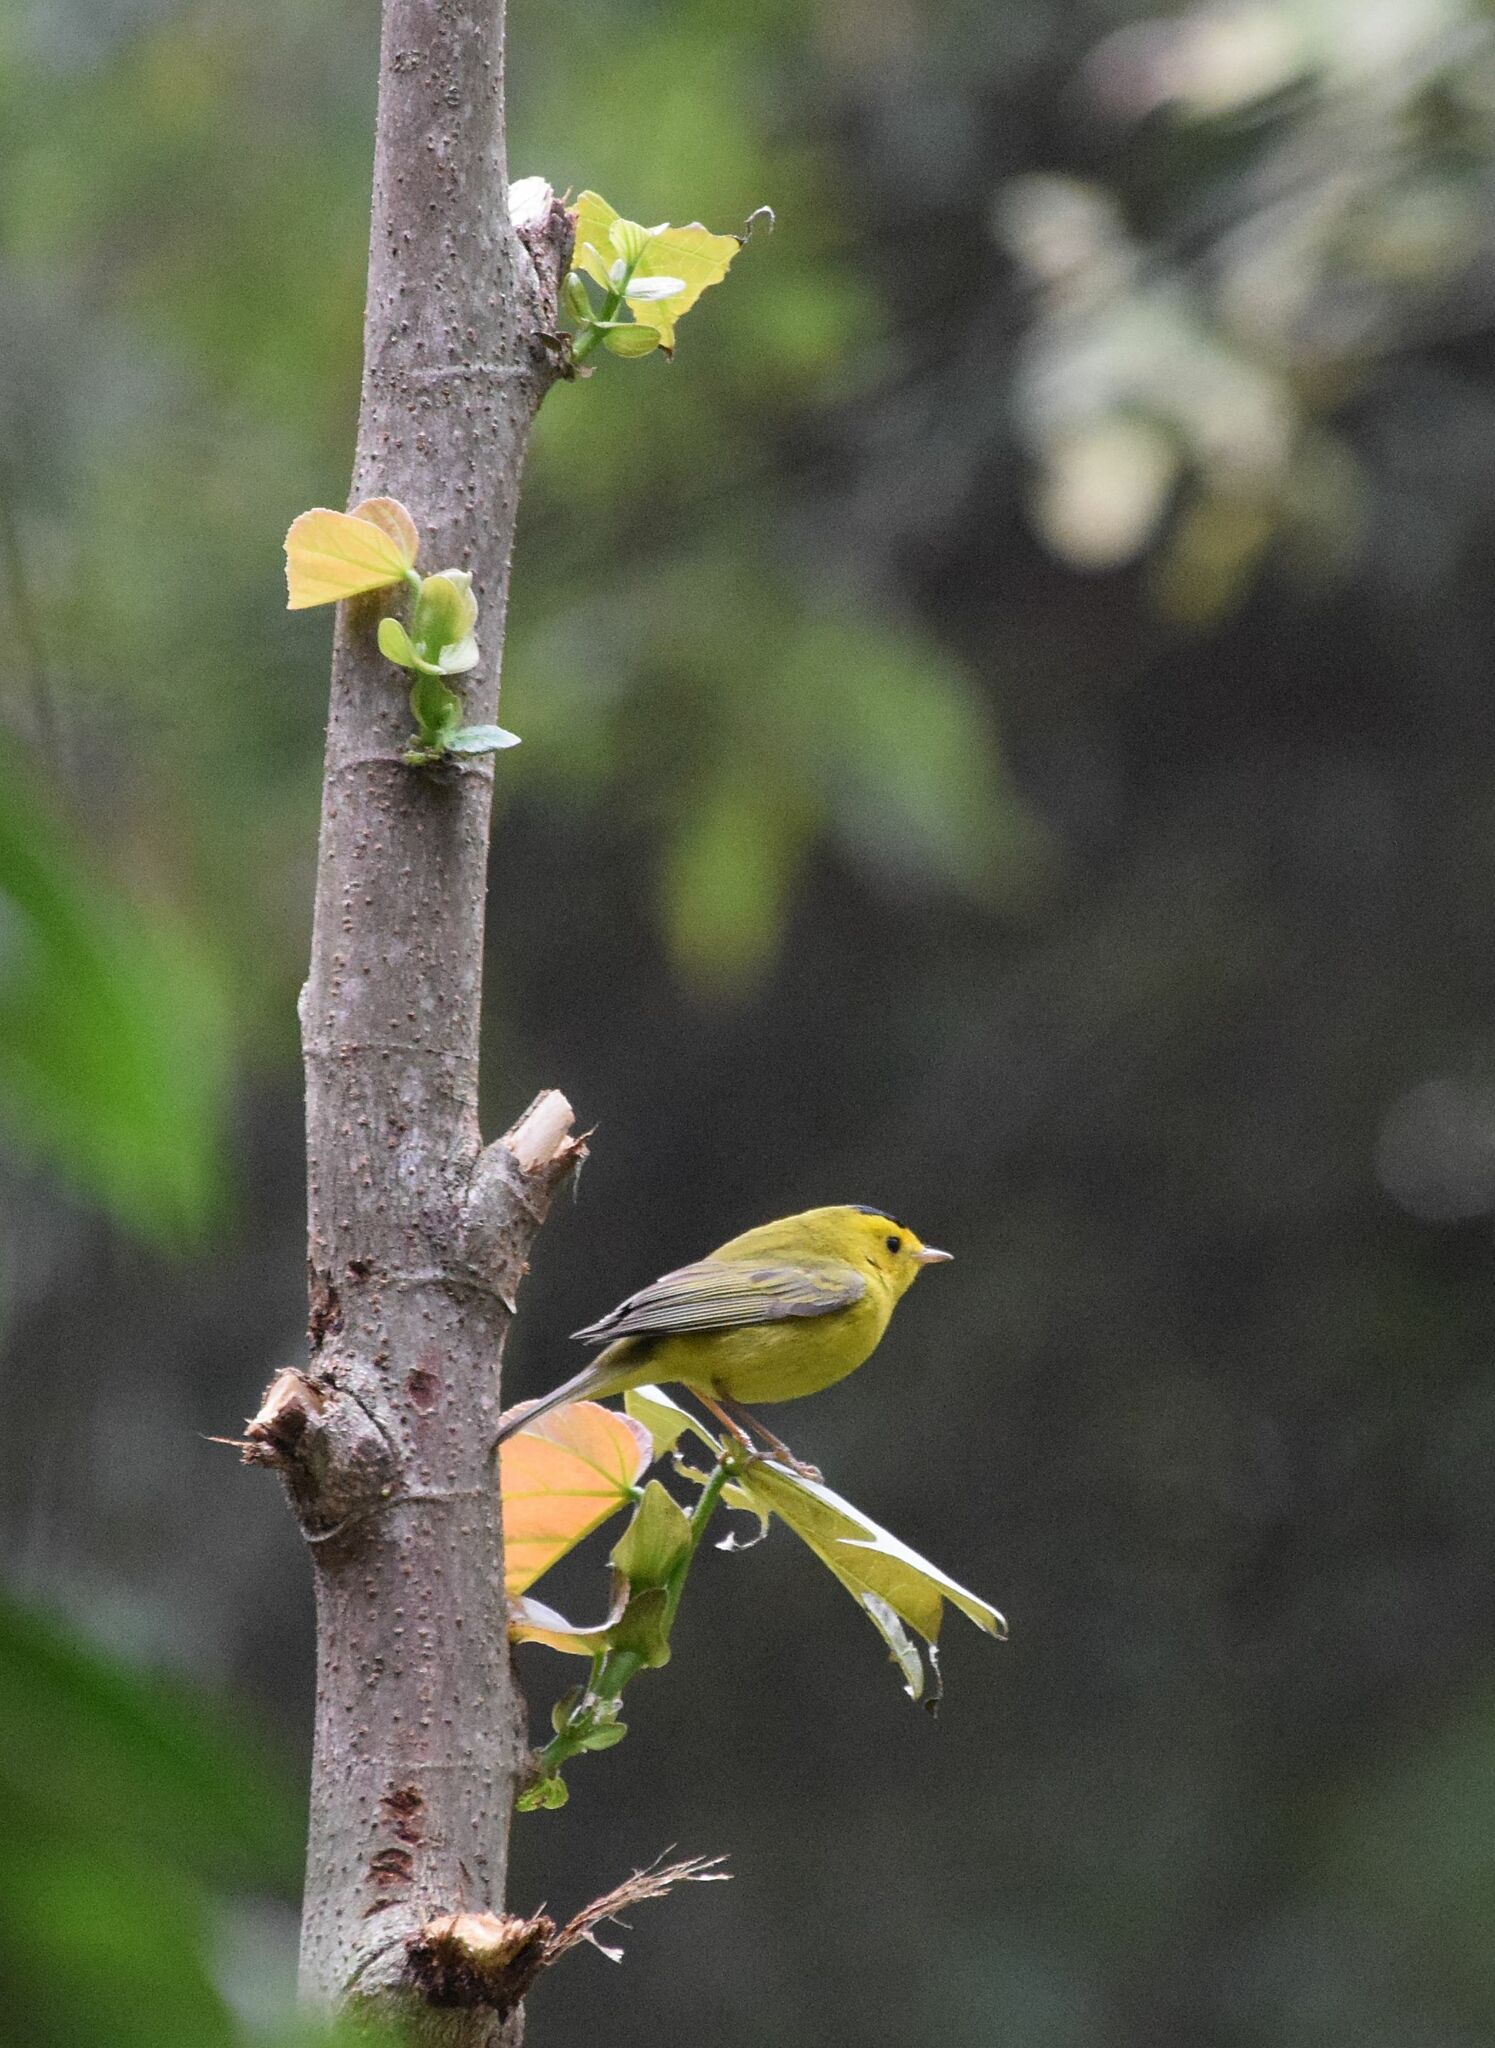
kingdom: Animalia
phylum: Chordata
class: Aves
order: Passeriformes
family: Parulidae
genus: Cardellina
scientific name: Cardellina pusilla
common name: Wilson's warbler
